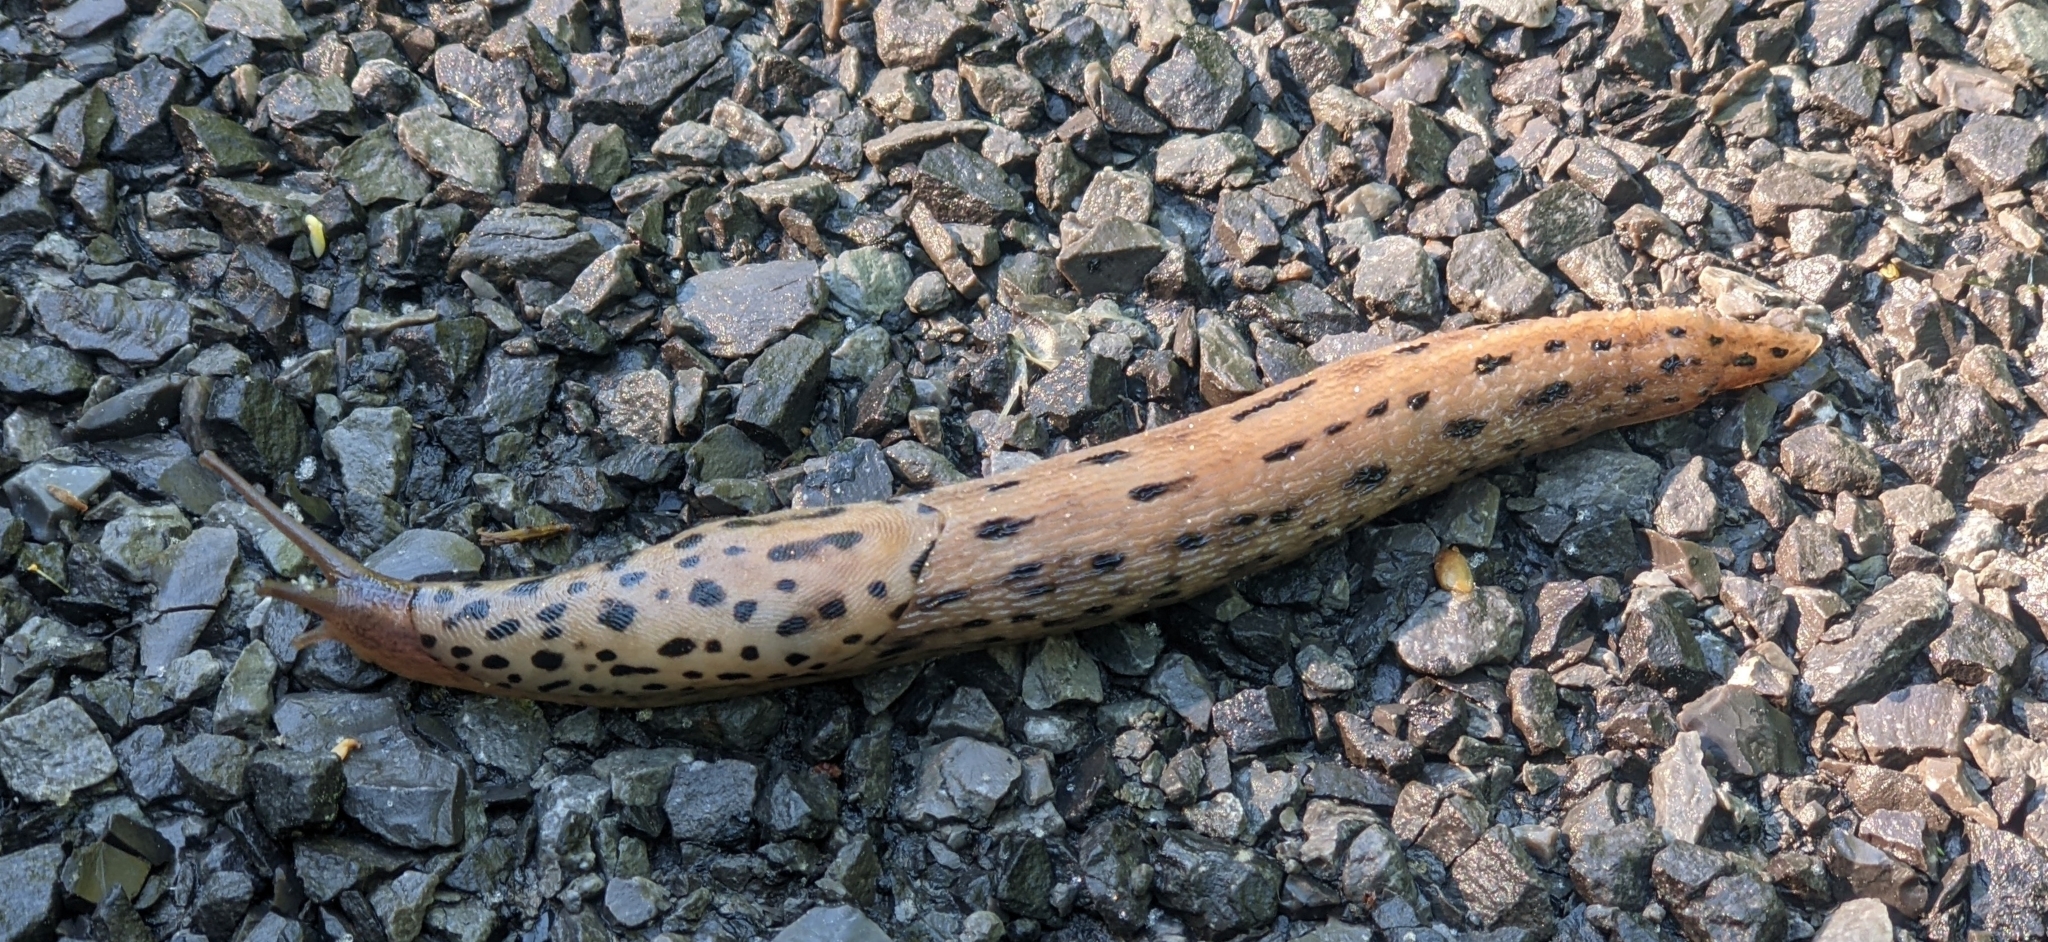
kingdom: Animalia
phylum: Mollusca
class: Gastropoda
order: Stylommatophora
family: Limacidae
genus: Limax
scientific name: Limax maximus
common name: Great grey slug
